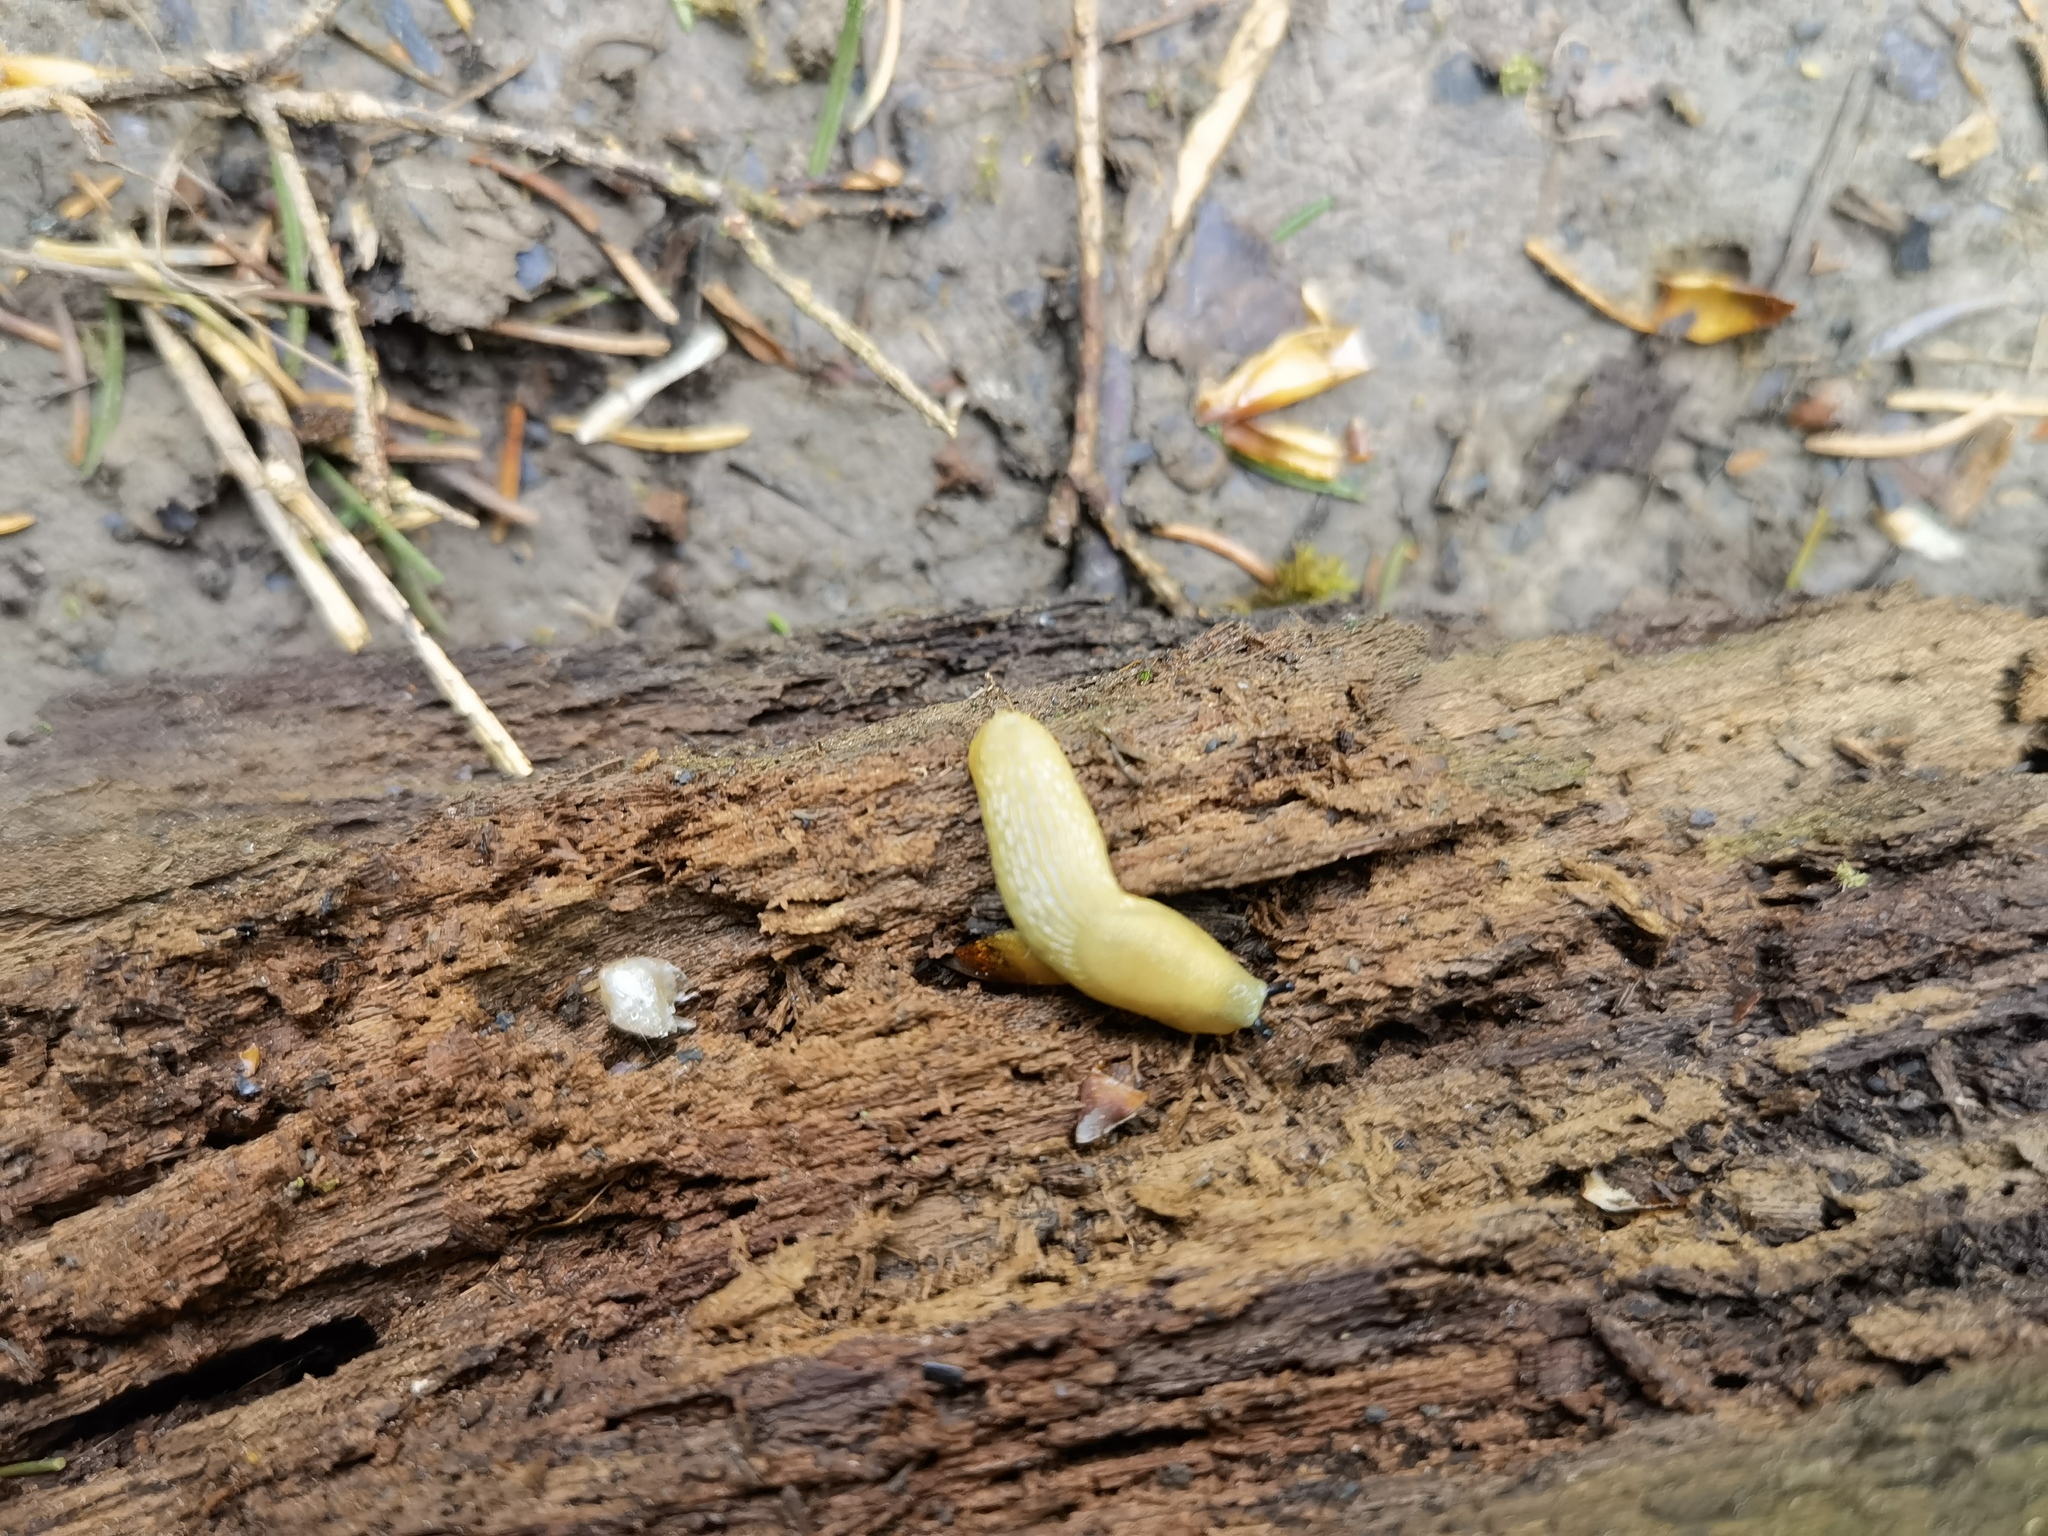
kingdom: Animalia
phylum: Mollusca
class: Gastropoda
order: Stylommatophora
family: Arionidae
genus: Arion
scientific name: Arion intermedius
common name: Hedgehog slug
